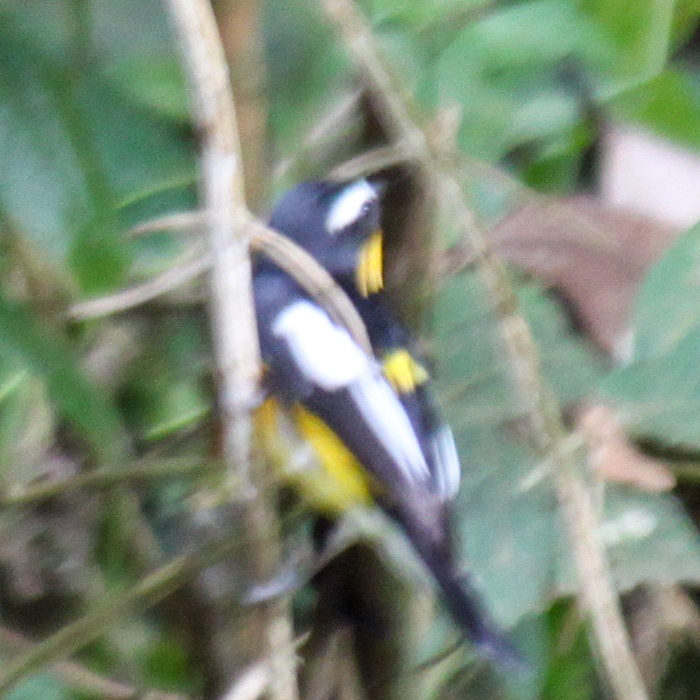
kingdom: Animalia
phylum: Chordata
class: Aves
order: Passeriformes
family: Muscicapidae
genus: Ficedula
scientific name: Ficedula zanthopygia
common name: Yellow-rumped flycatcher
